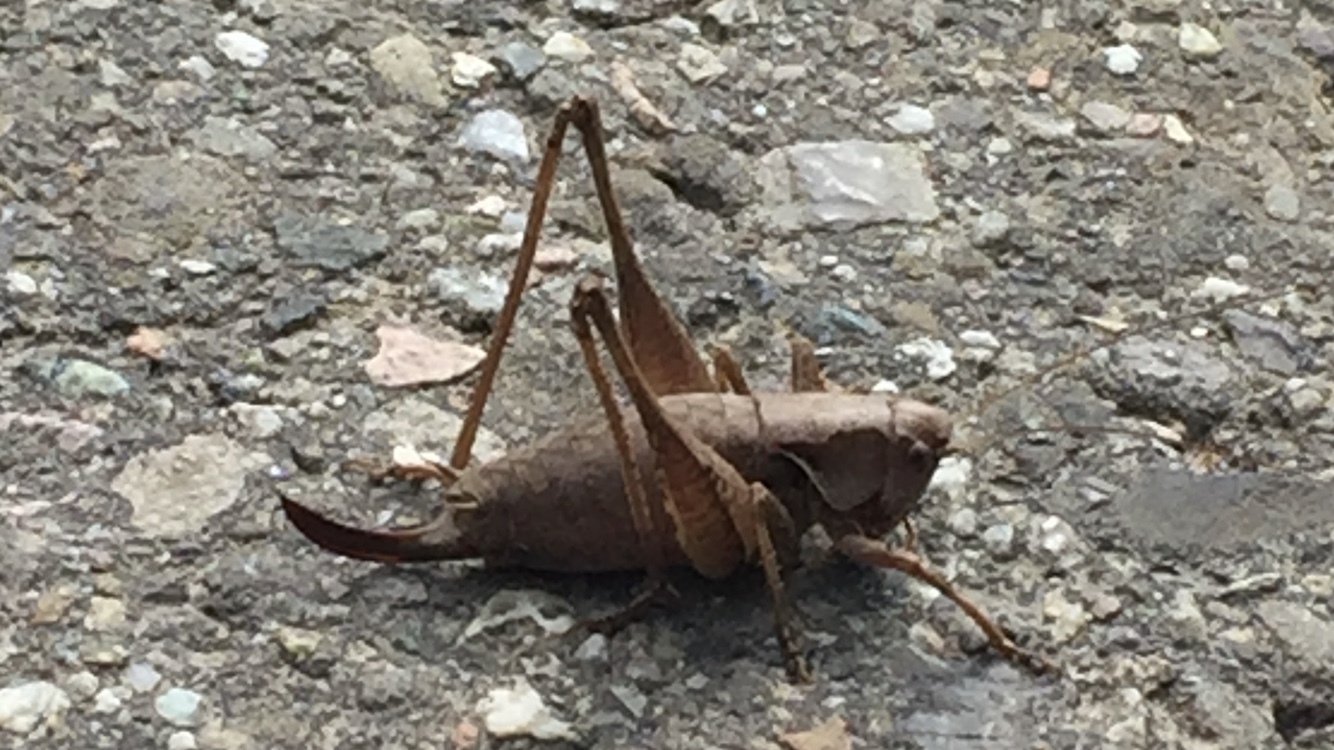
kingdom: Animalia
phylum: Arthropoda
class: Insecta
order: Orthoptera
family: Tettigoniidae
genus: Pholidoptera
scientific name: Pholidoptera griseoaptera
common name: Dark bush-cricket
